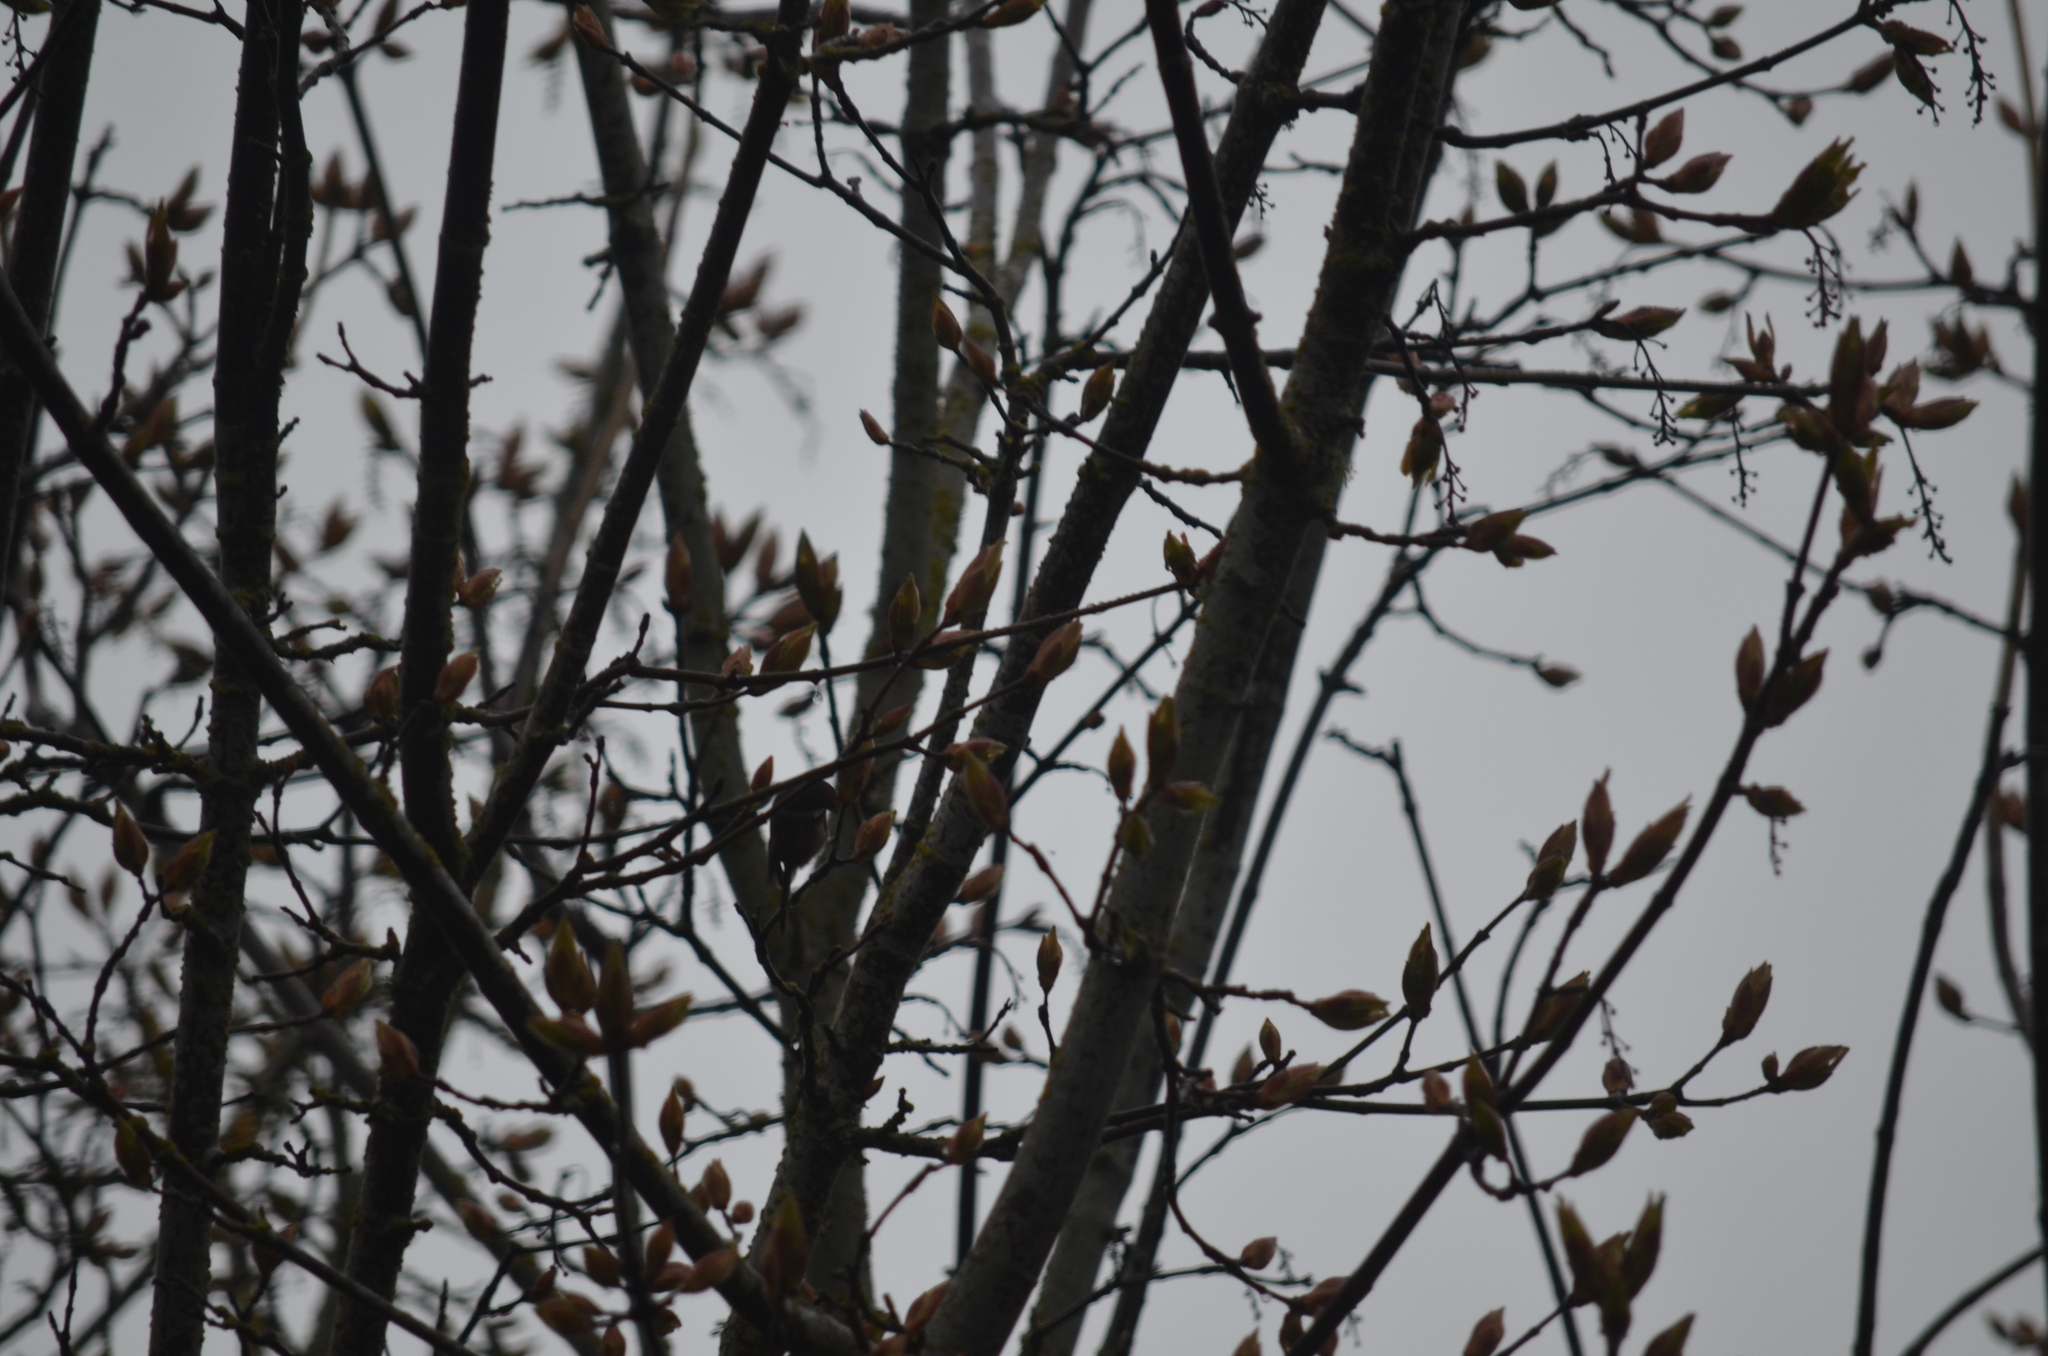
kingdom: Animalia
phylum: Chordata
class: Aves
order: Passeriformes
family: Paridae
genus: Poecile
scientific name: Poecile rufescens
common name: Chestnut-backed chickadee
